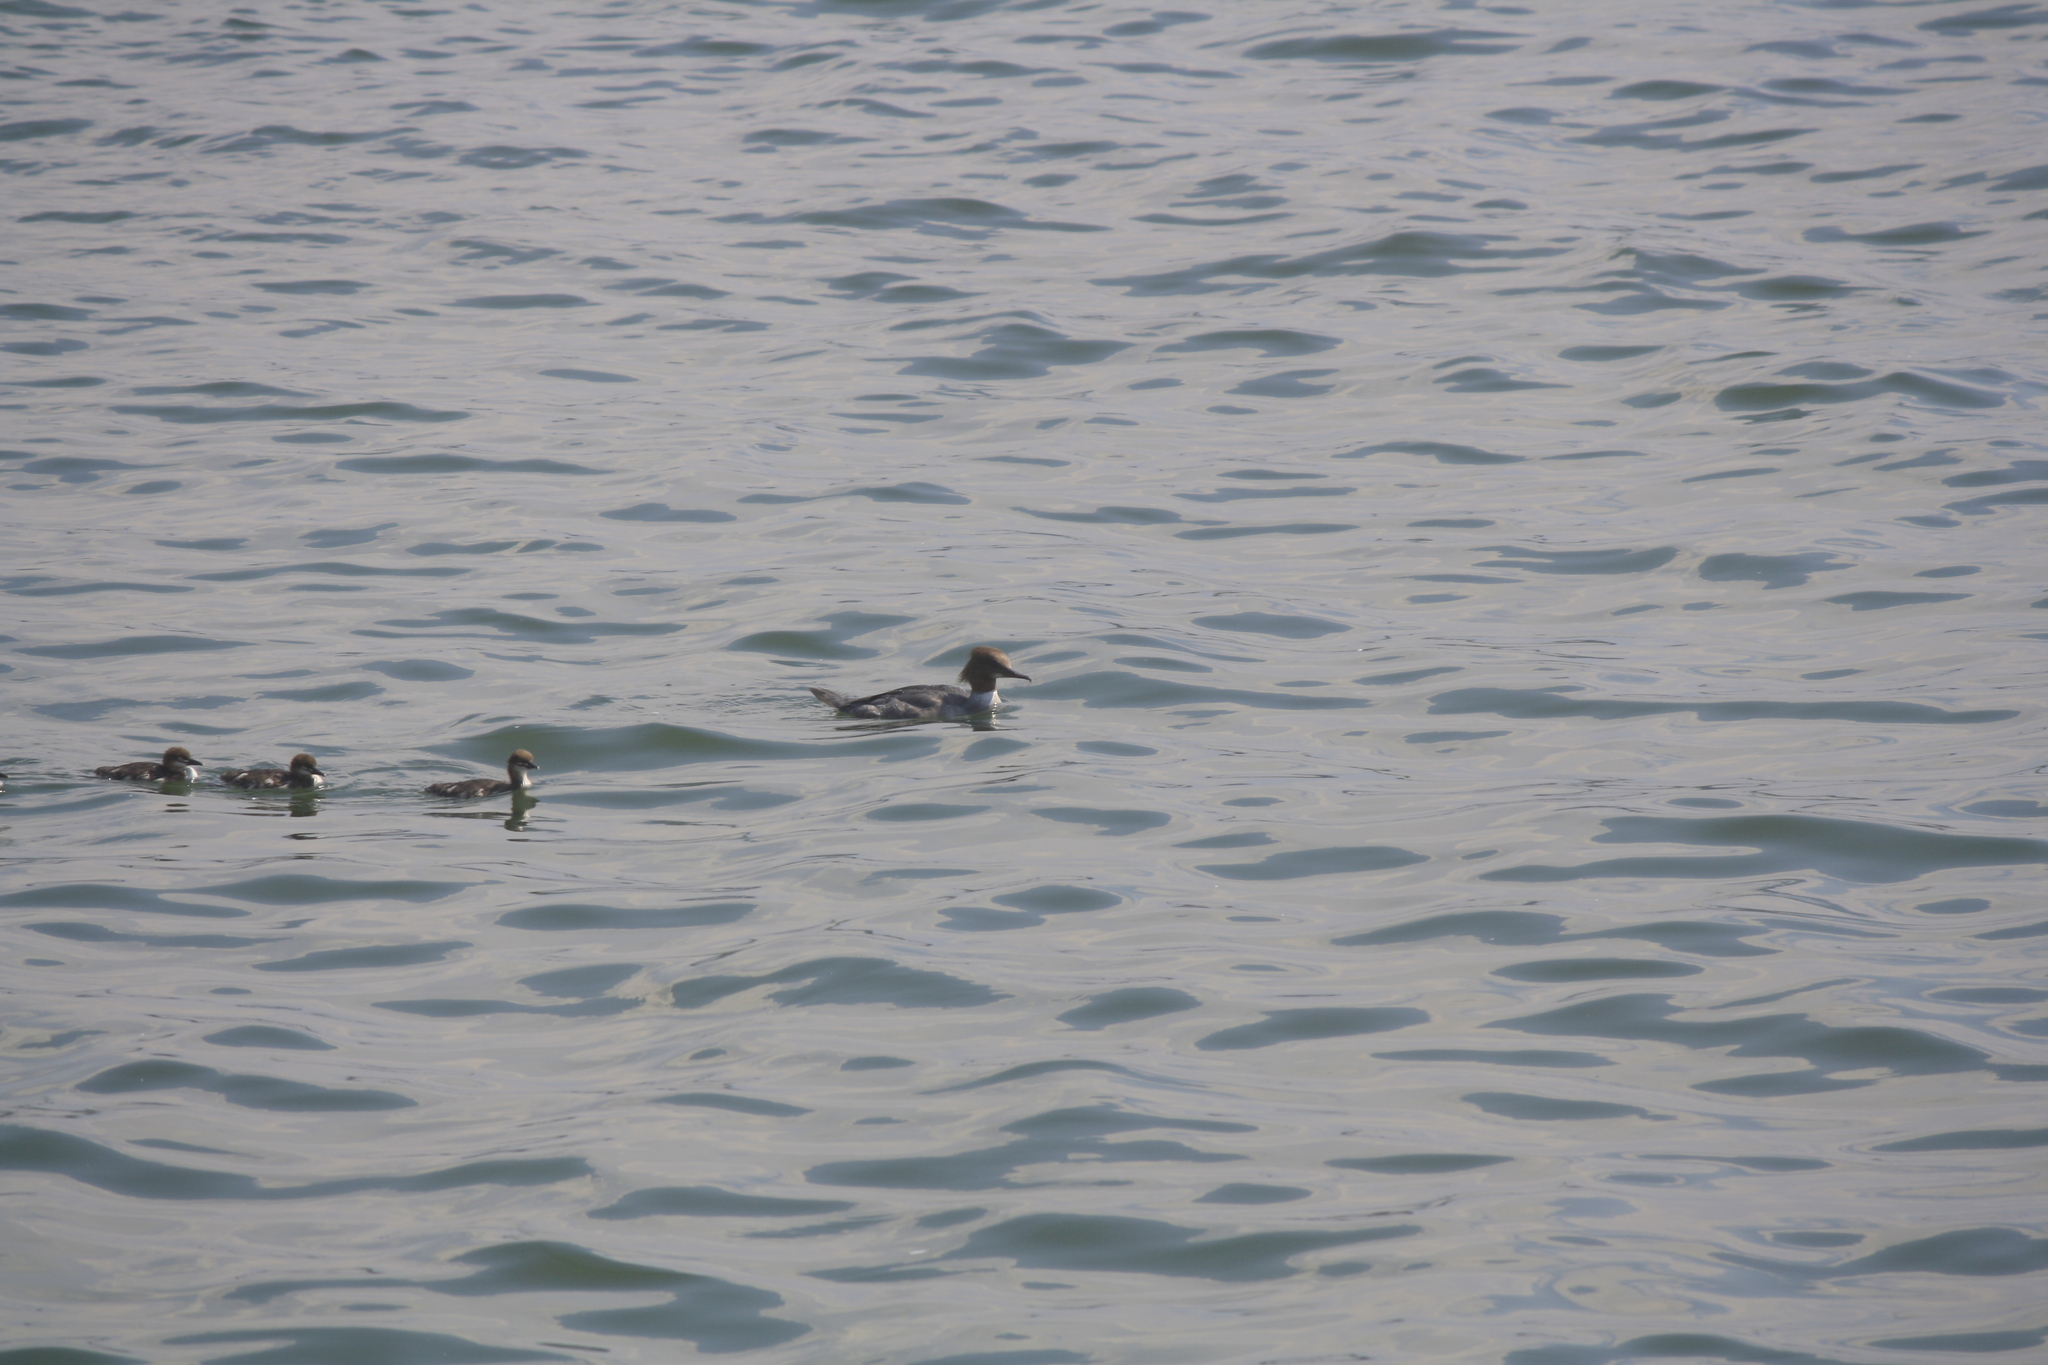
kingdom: Animalia
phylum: Chordata
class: Aves
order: Anseriformes
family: Anatidae
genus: Mergus
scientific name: Mergus merganser
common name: Common merganser
